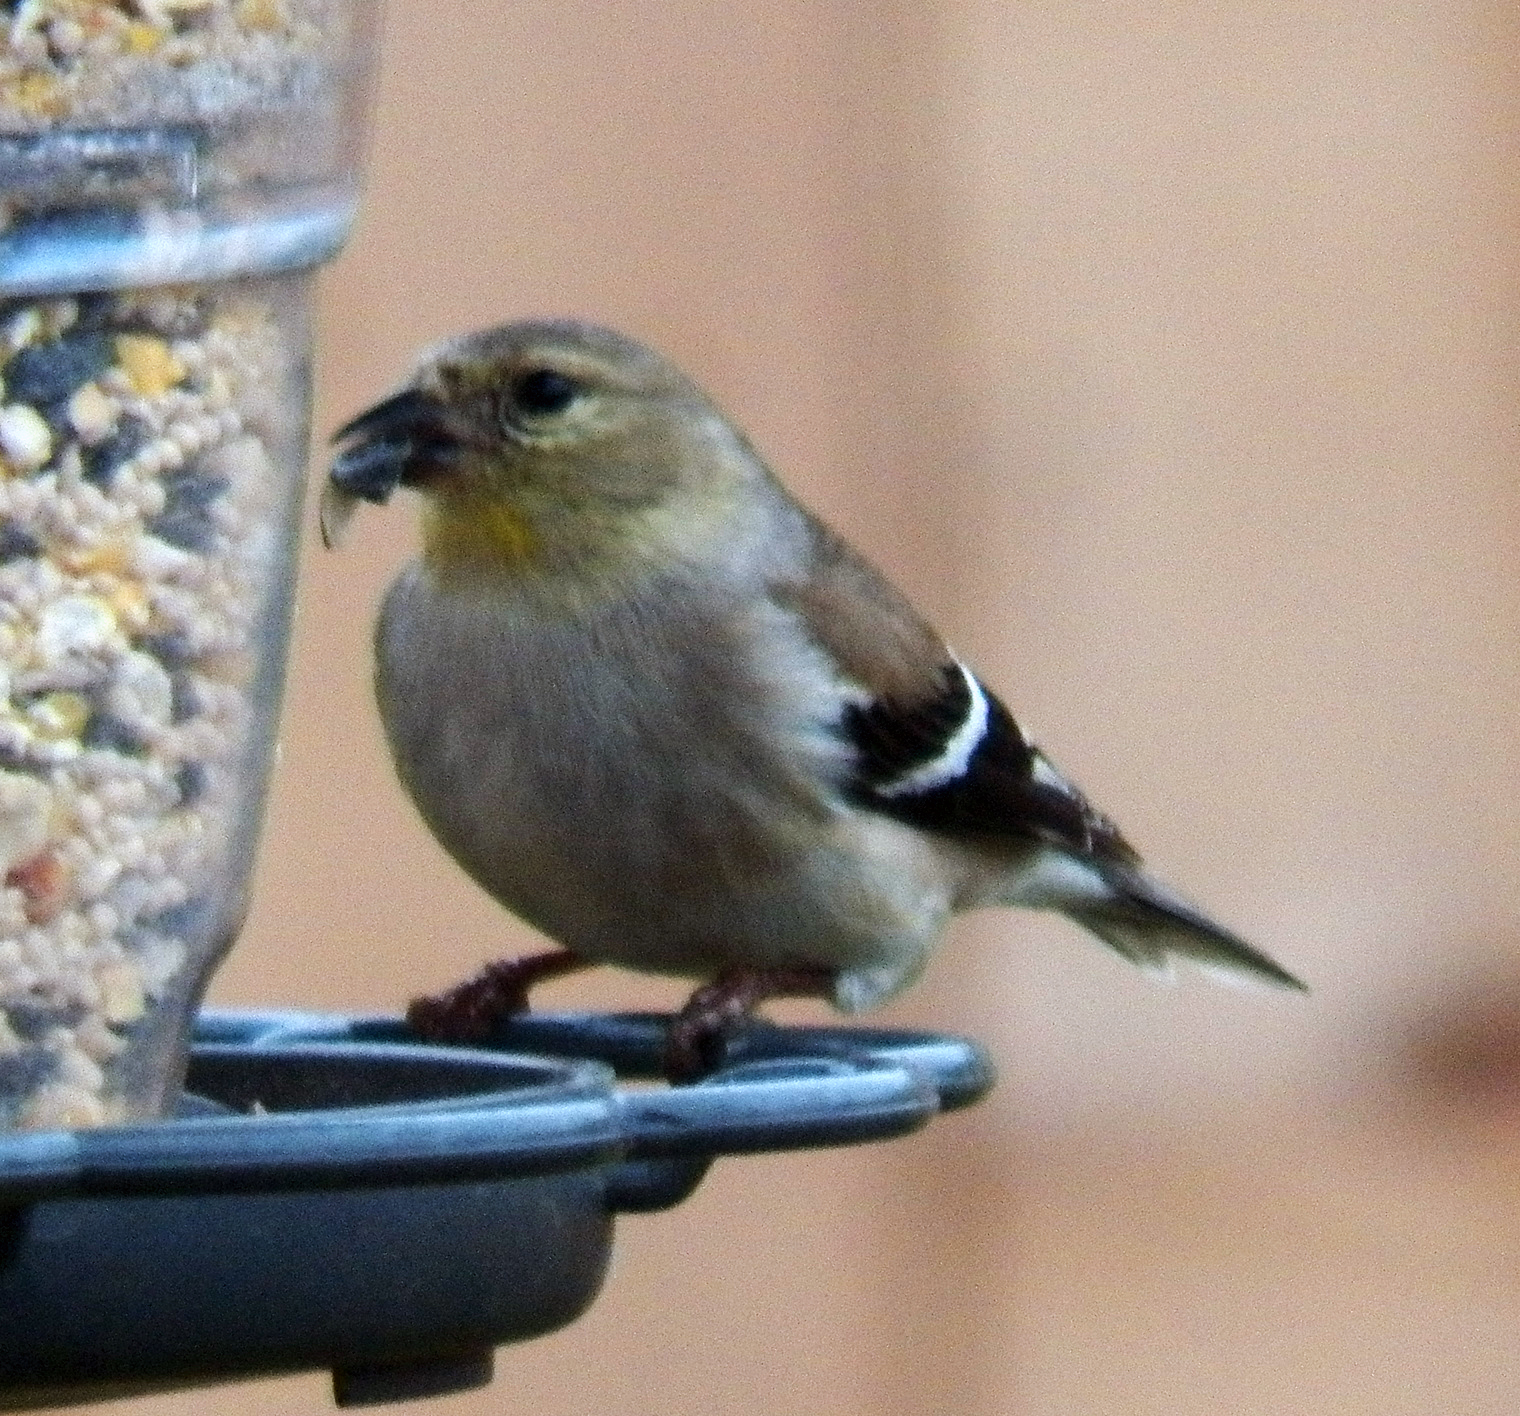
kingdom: Animalia
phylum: Chordata
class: Aves
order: Passeriformes
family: Fringillidae
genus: Spinus
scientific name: Spinus tristis
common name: American goldfinch
